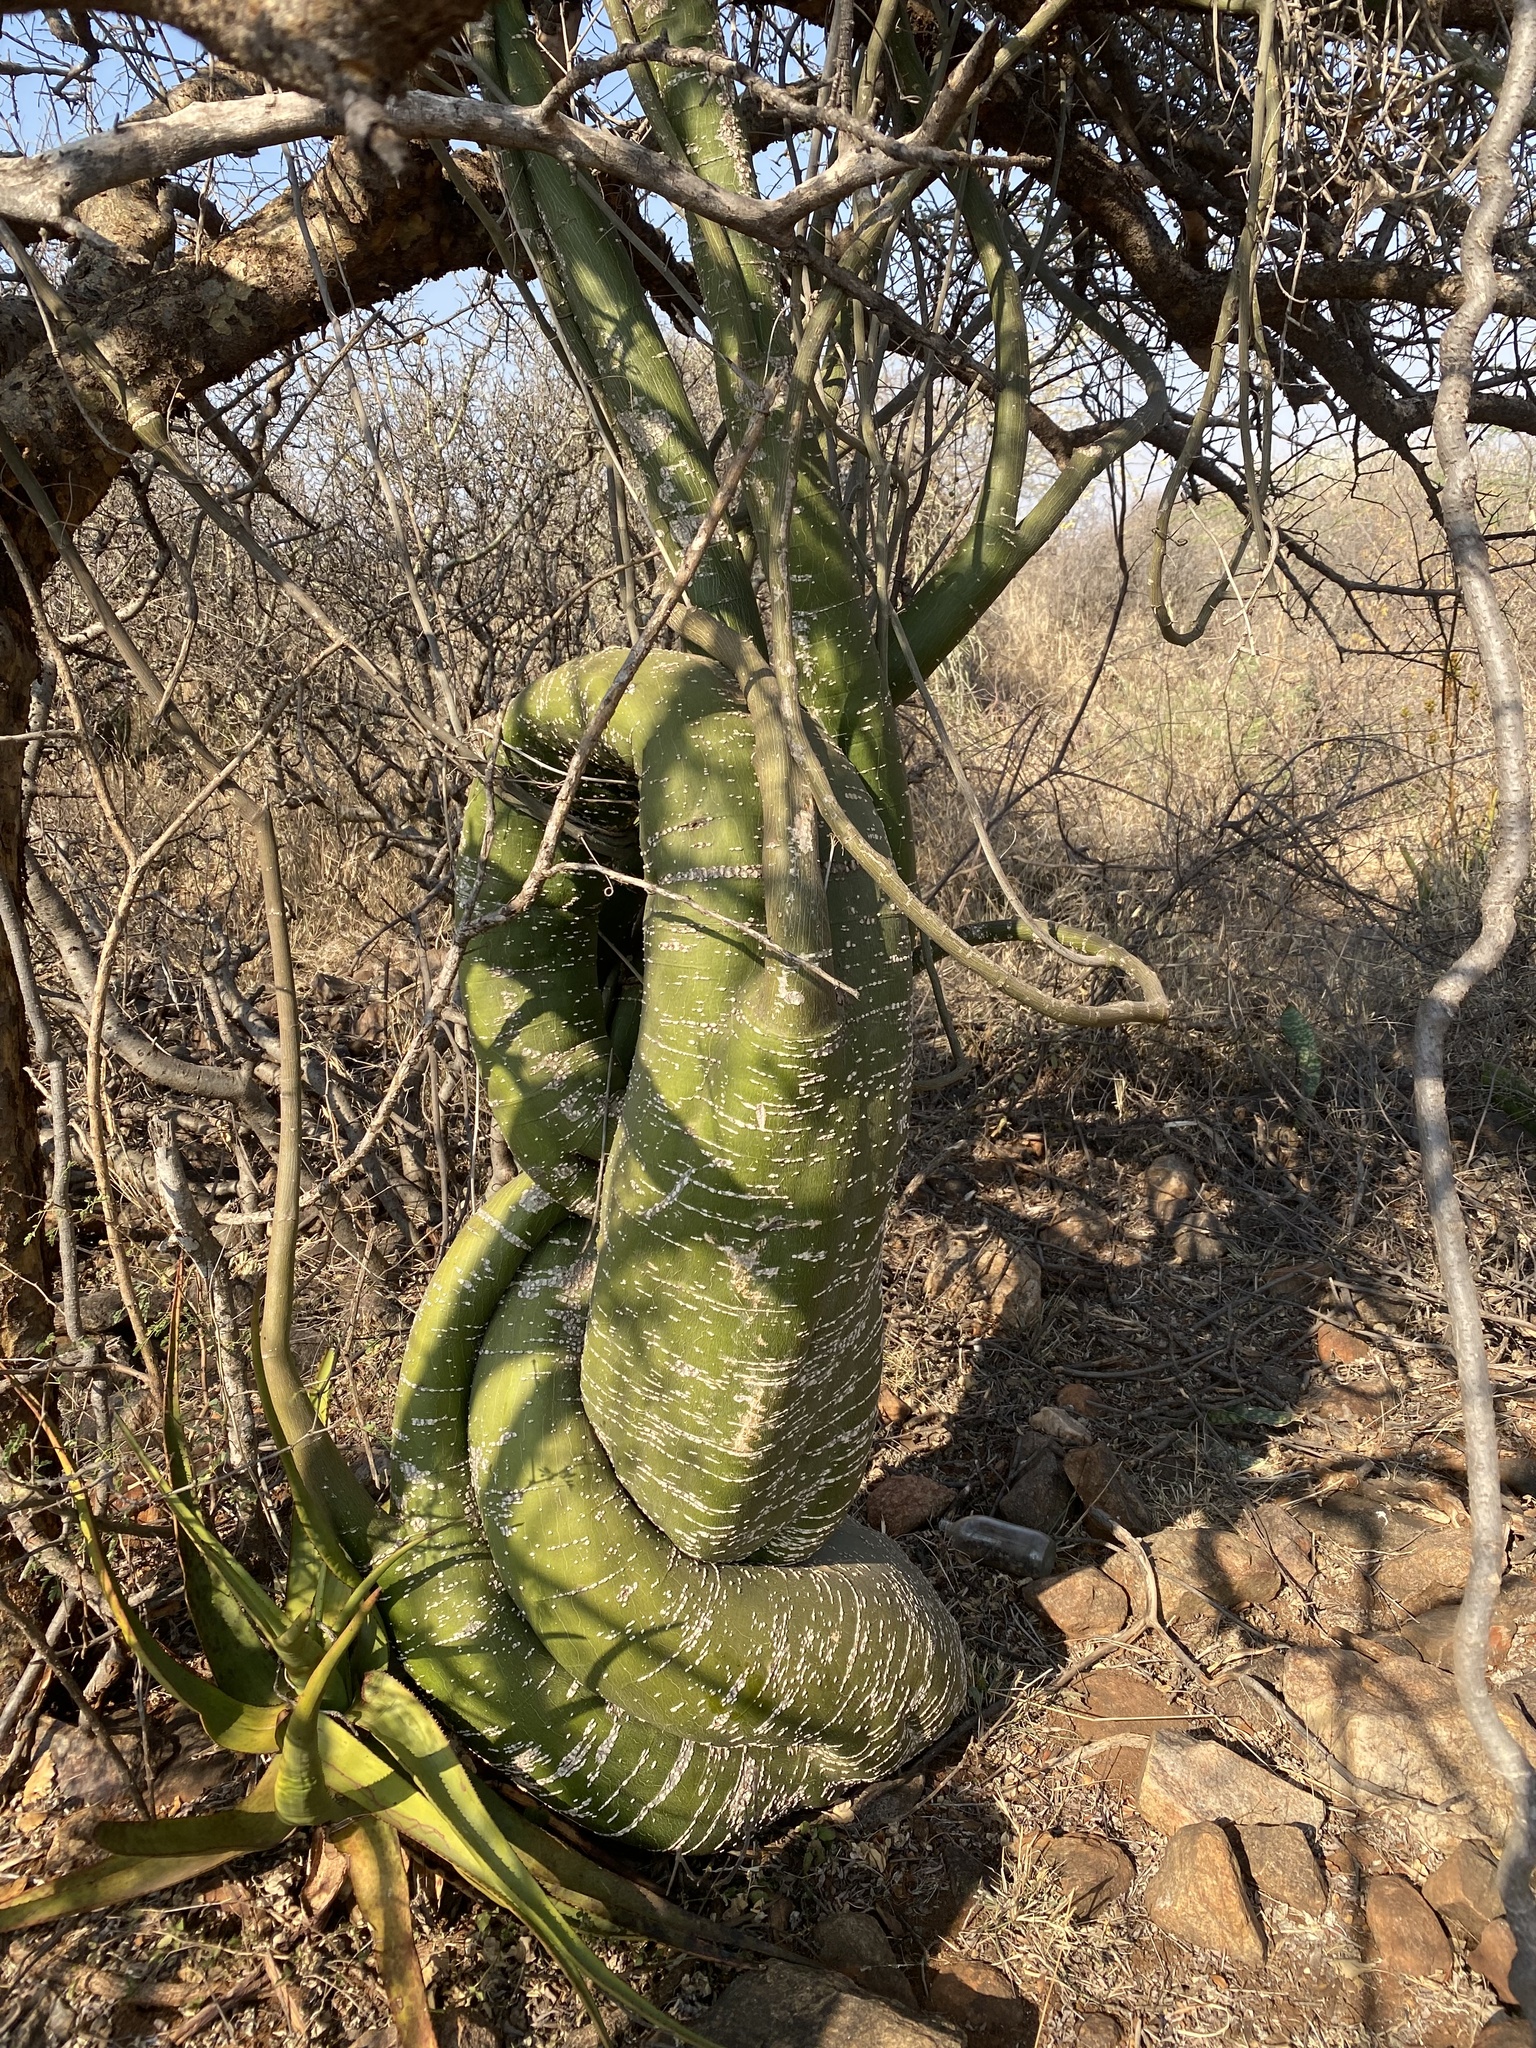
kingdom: Plantae
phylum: Tracheophyta
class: Magnoliopsida
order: Malpighiales
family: Passifloraceae
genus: Adenia
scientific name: Adenia fruticosa
